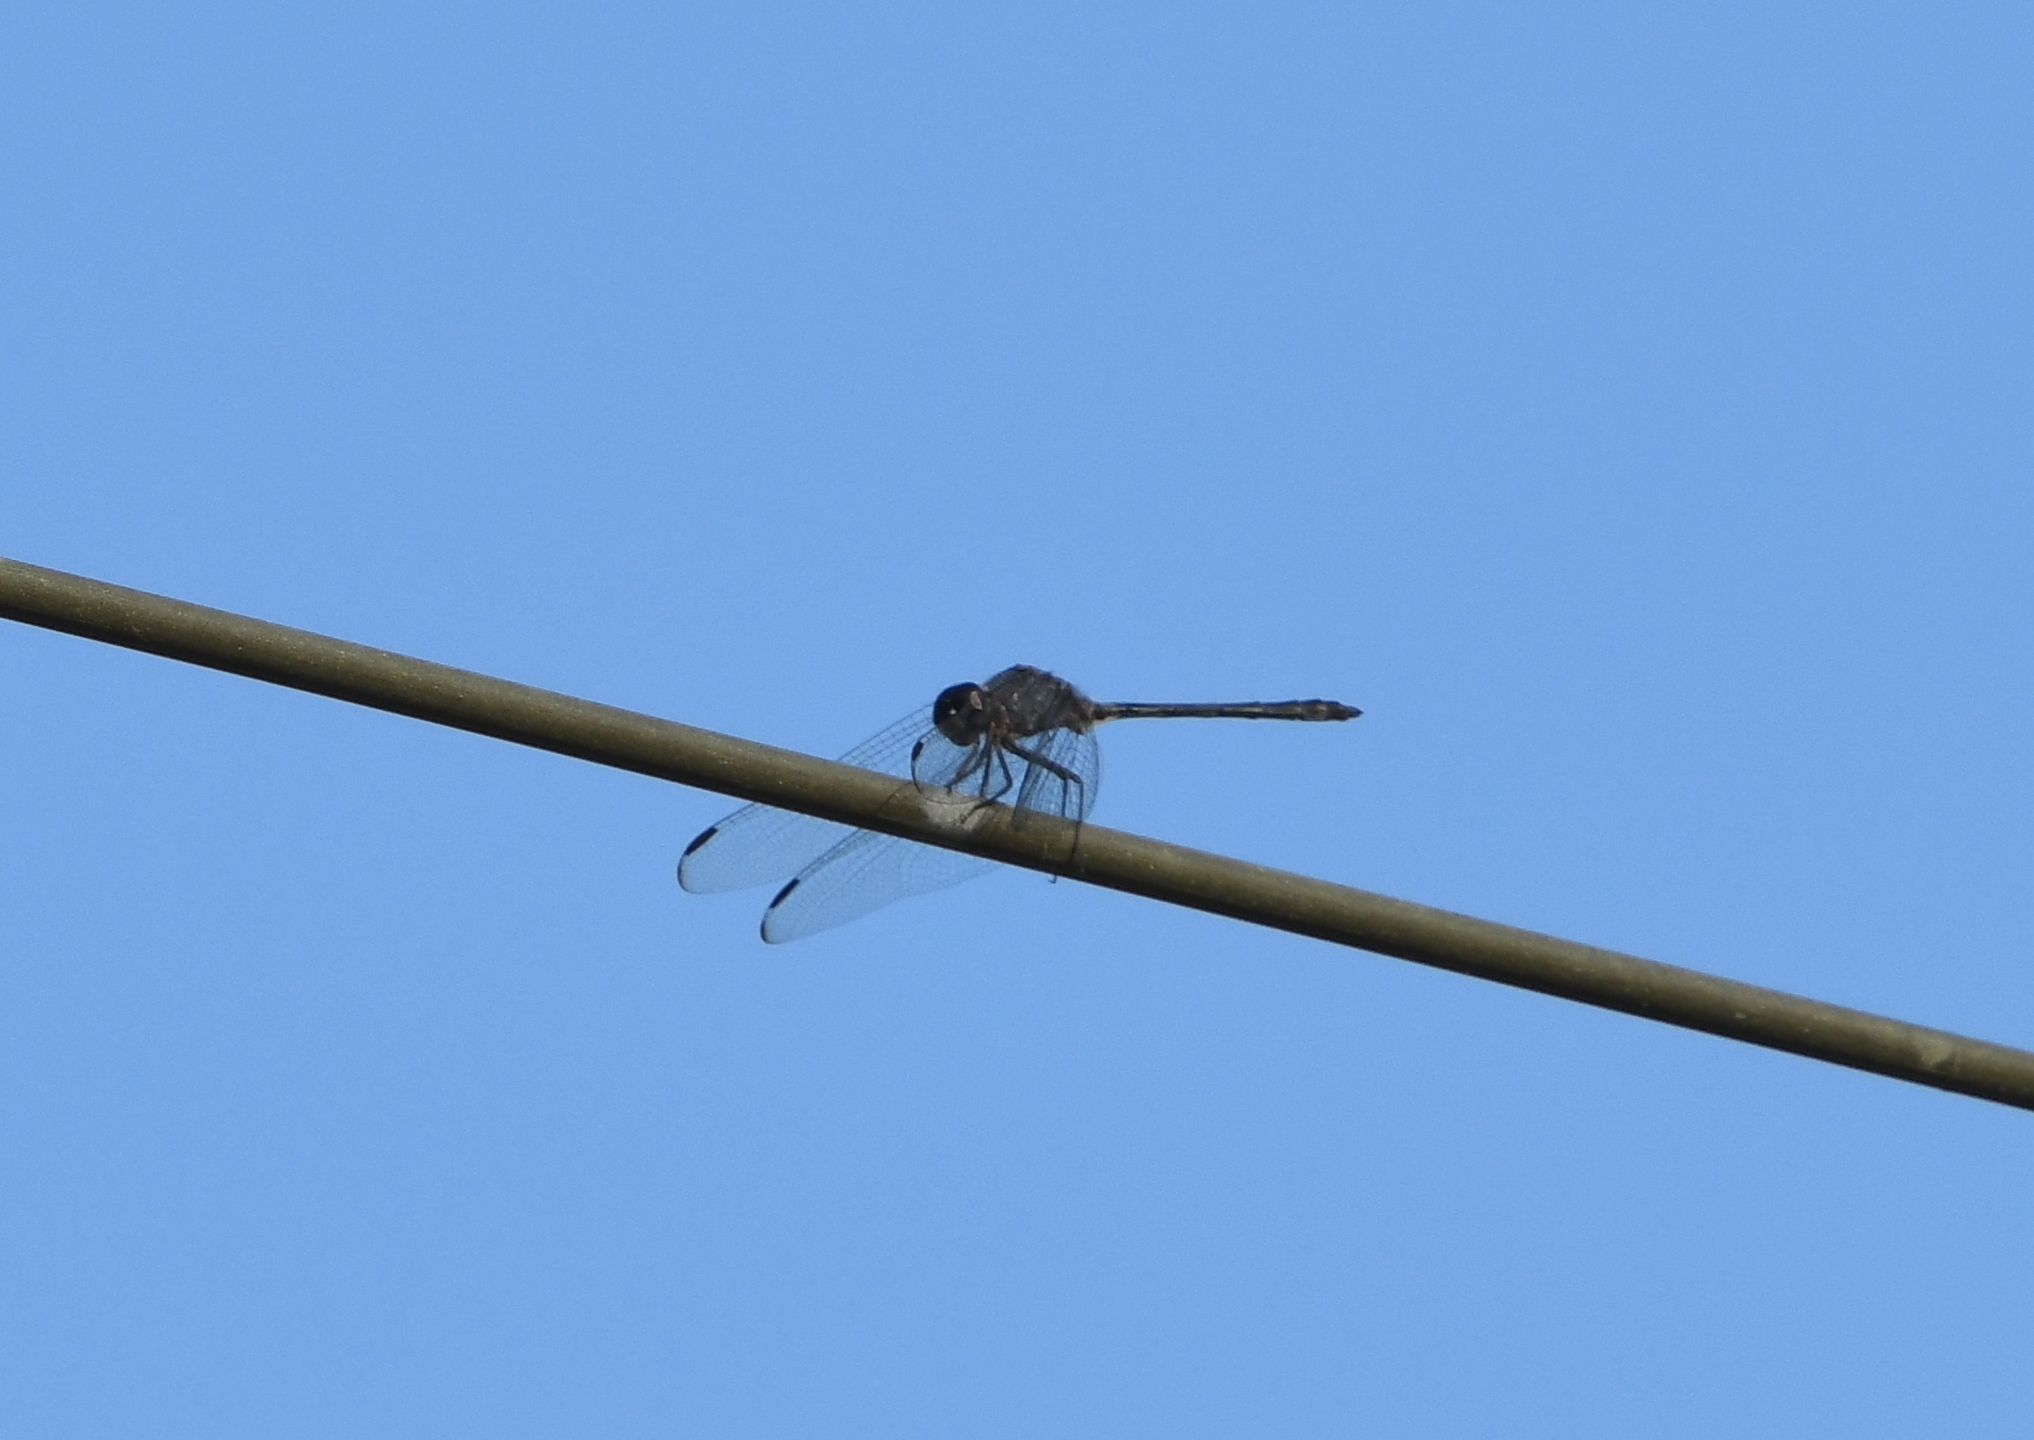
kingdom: Animalia
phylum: Arthropoda
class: Insecta
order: Odonata
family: Libellulidae
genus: Dythemis
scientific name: Dythemis nigrescens
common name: Black setwing
